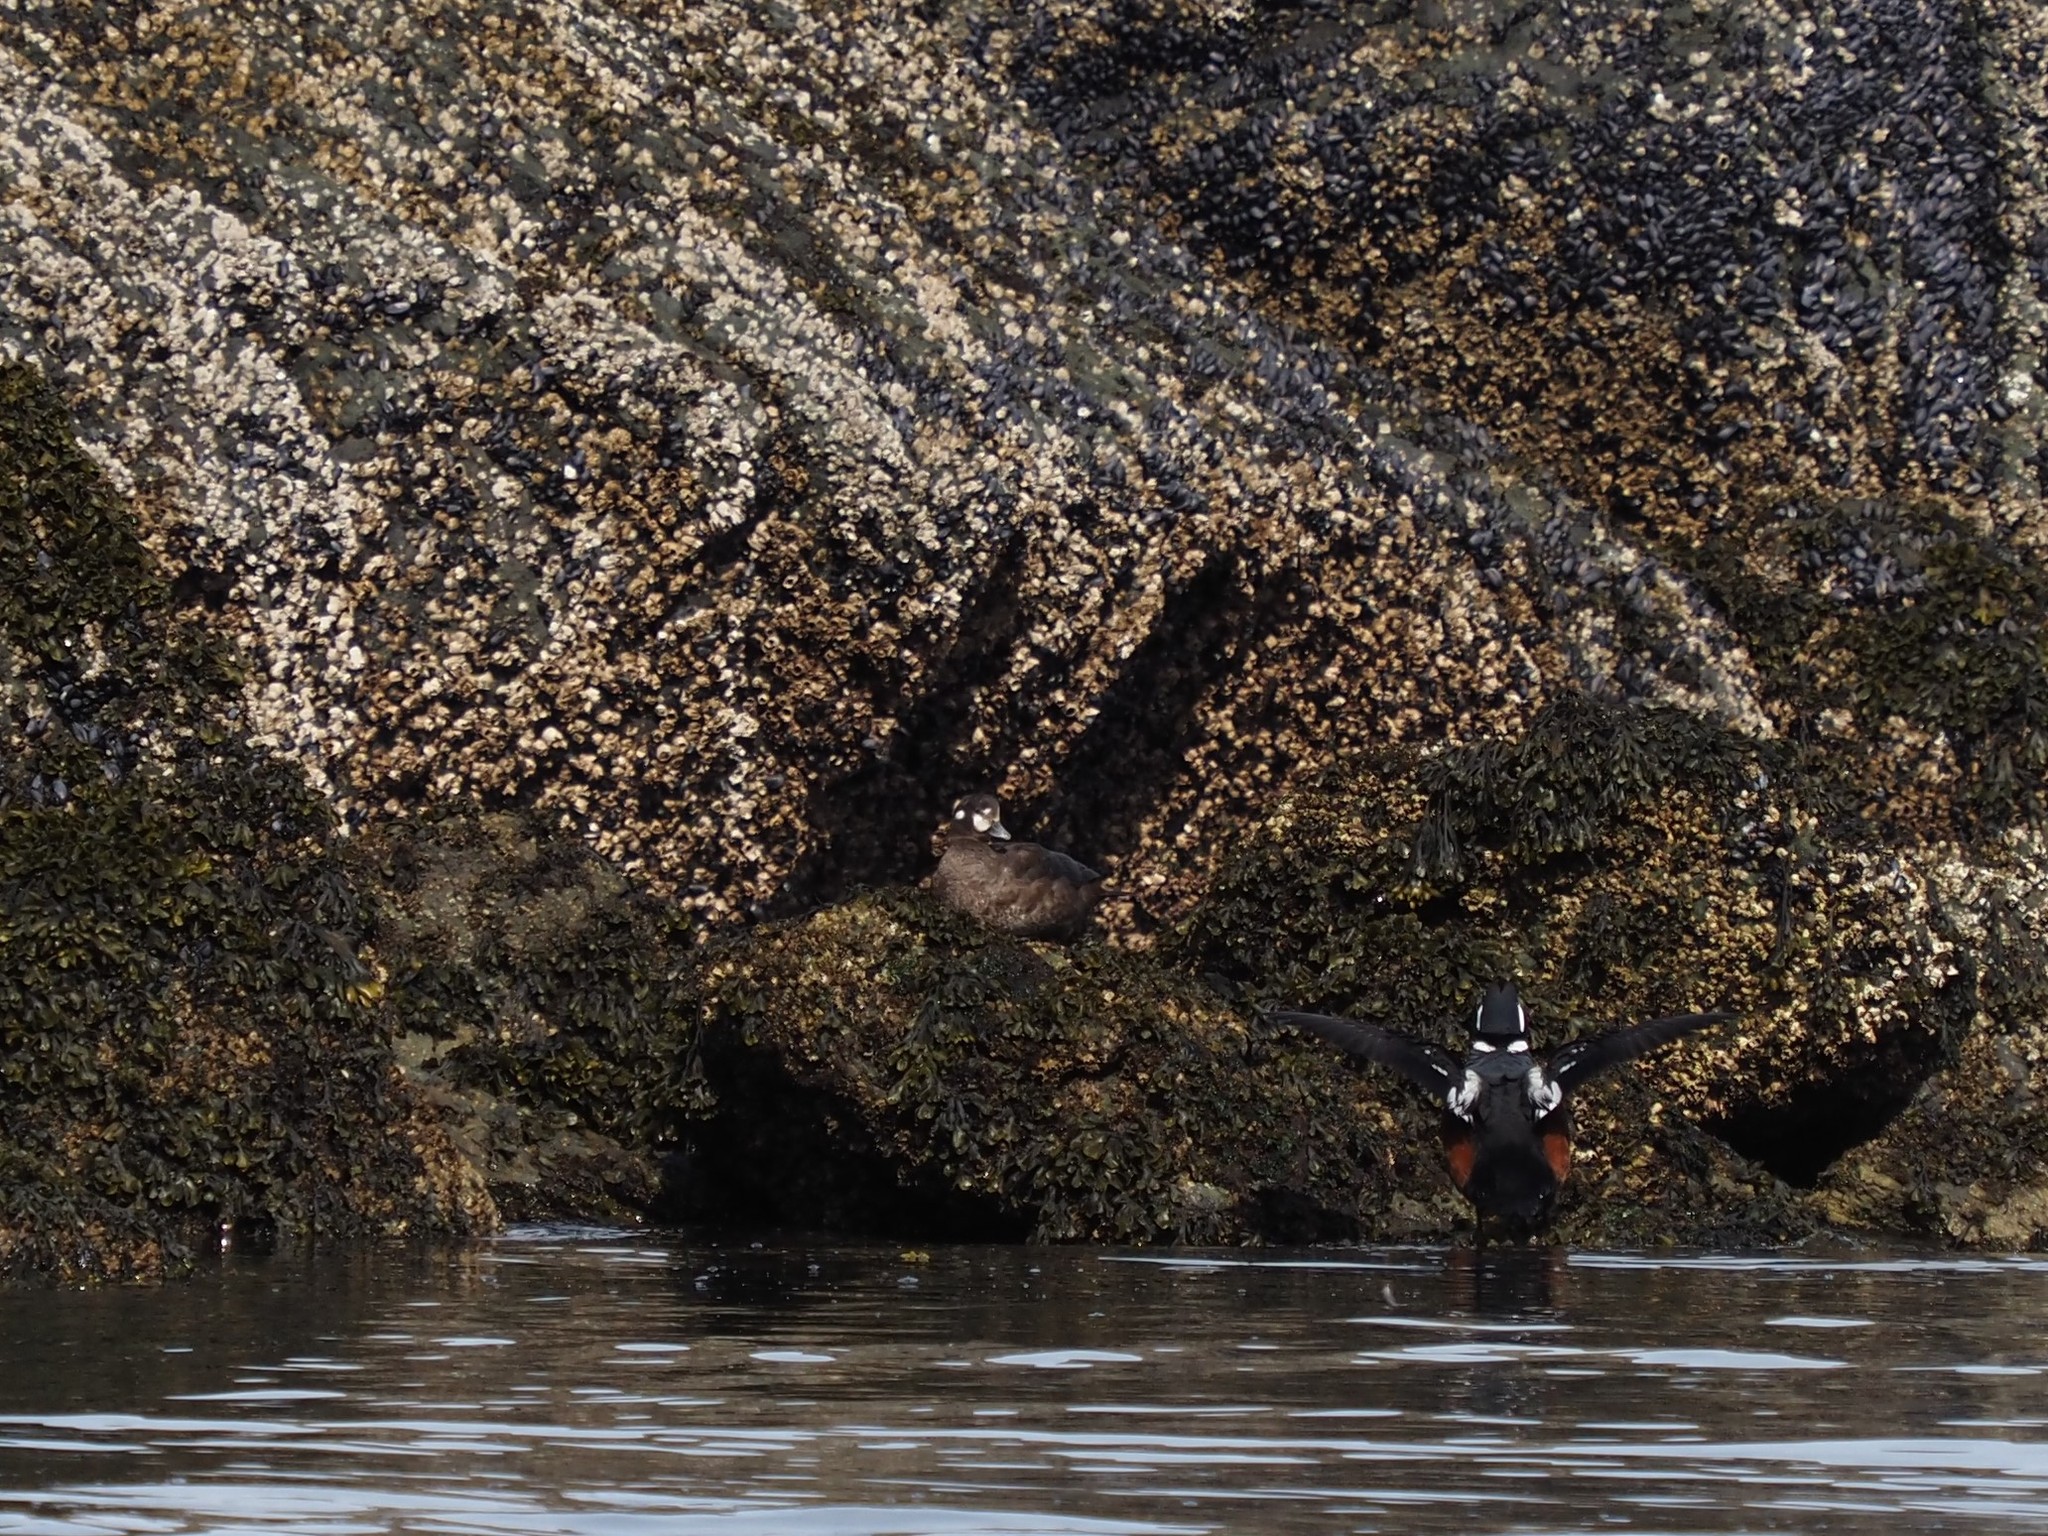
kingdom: Animalia
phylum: Chordata
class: Aves
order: Anseriformes
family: Anatidae
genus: Histrionicus
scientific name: Histrionicus histrionicus
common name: Harlequin duck
